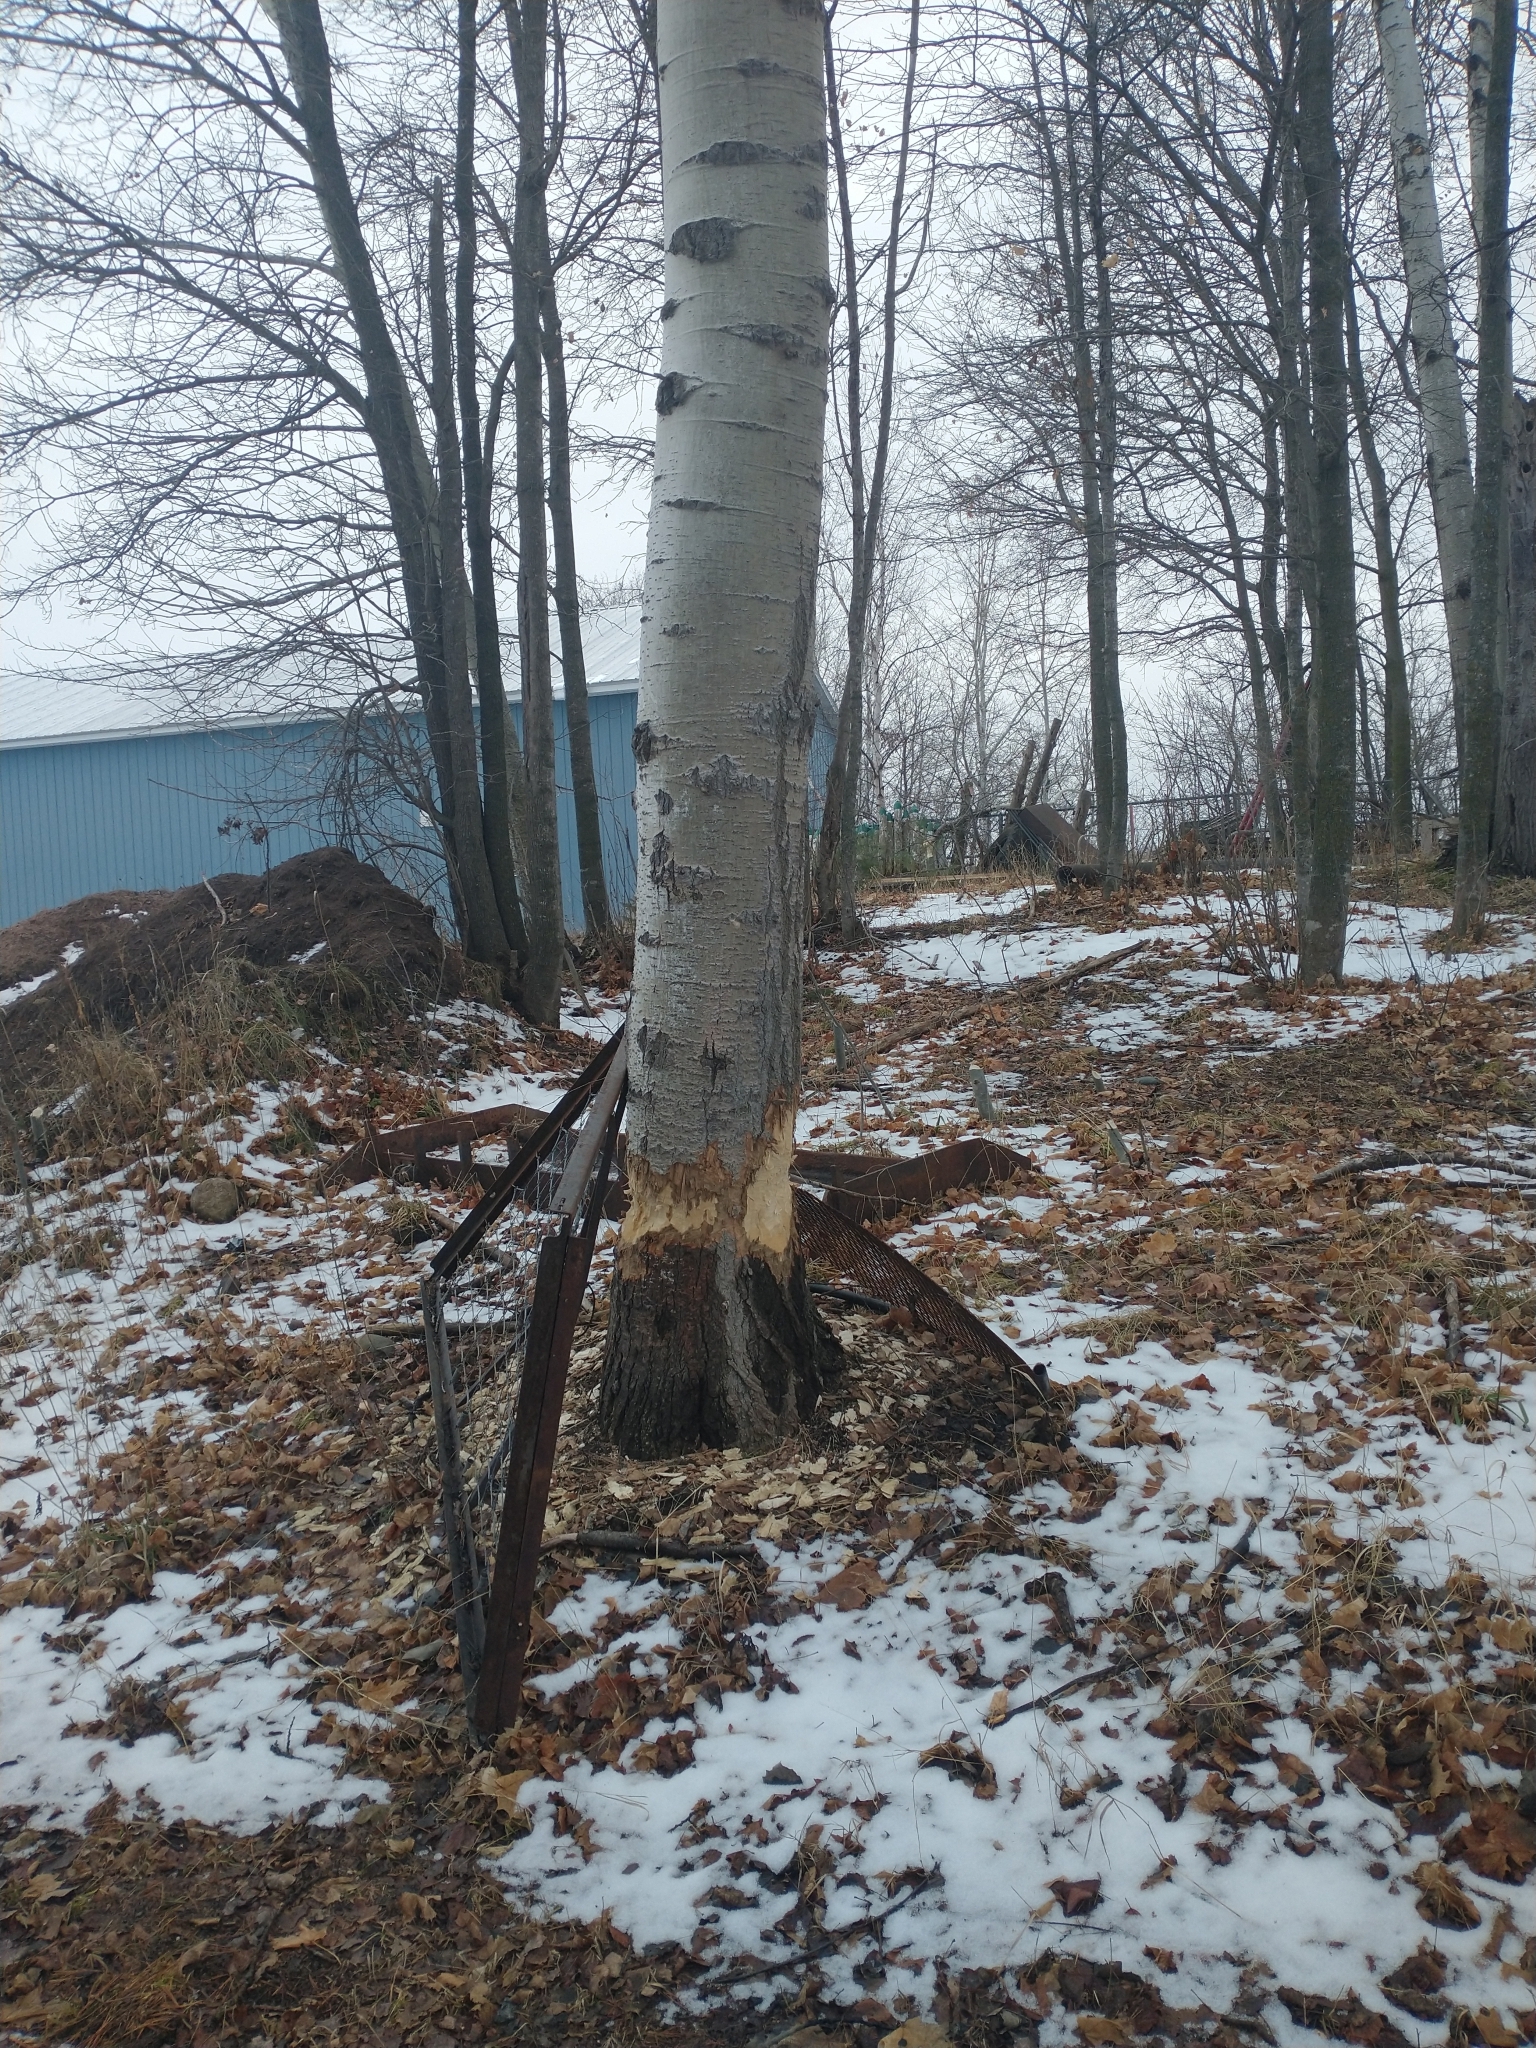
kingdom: Animalia
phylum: Chordata
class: Mammalia
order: Rodentia
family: Castoridae
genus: Castor
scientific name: Castor canadensis
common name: American beaver
